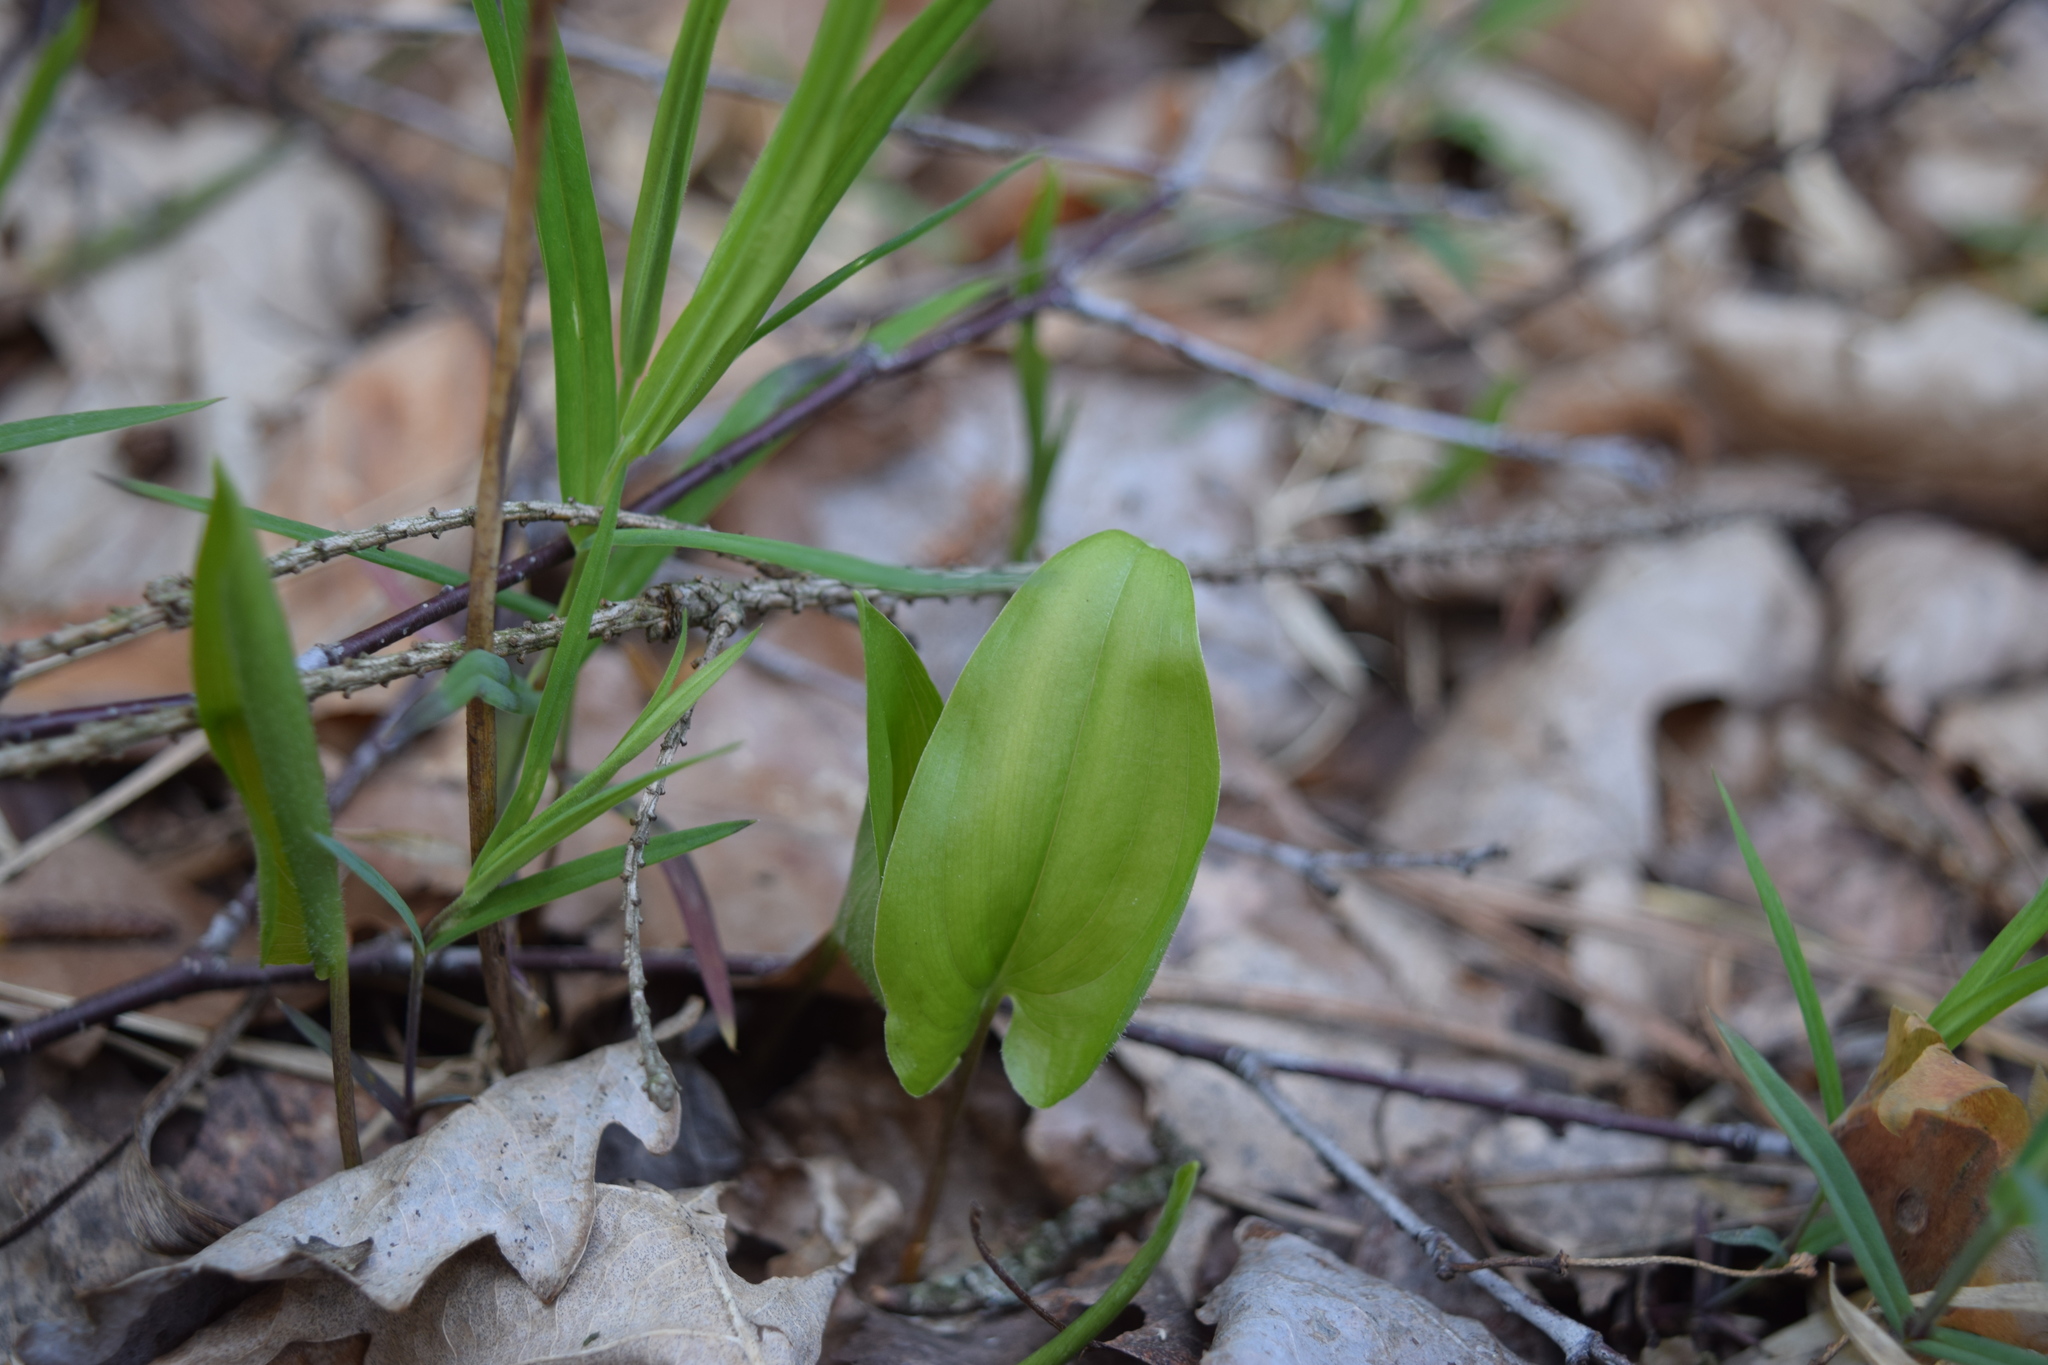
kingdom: Plantae
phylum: Tracheophyta
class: Liliopsida
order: Asparagales
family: Asparagaceae
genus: Maianthemum
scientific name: Maianthemum bifolium
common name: May lily
